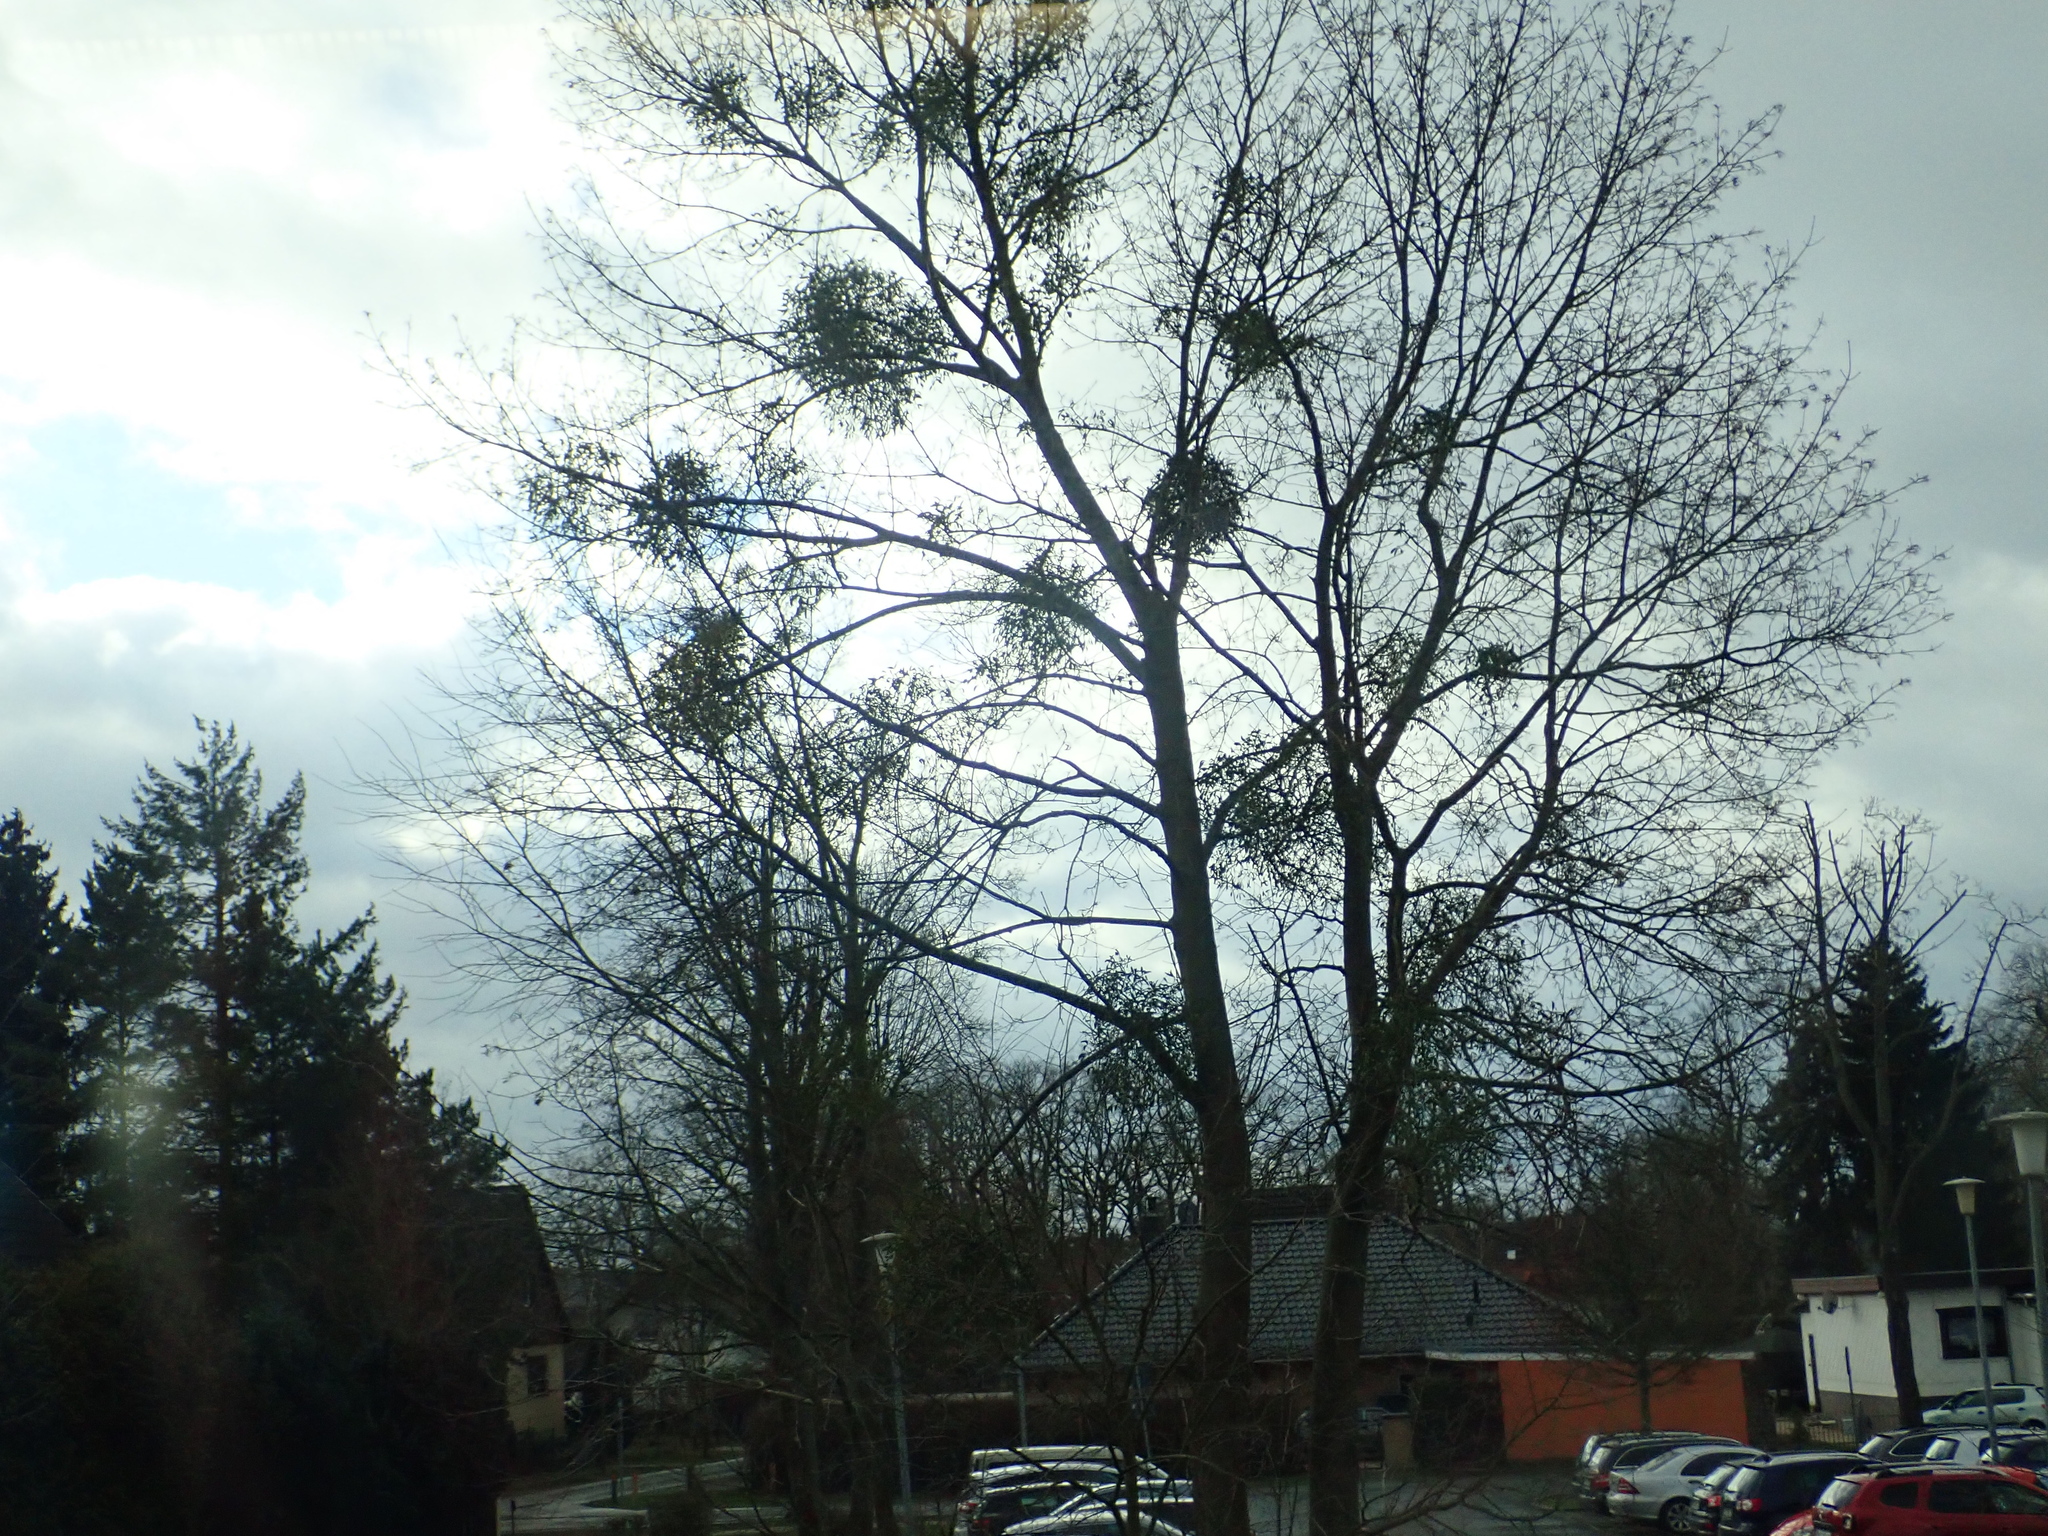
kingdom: Plantae
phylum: Tracheophyta
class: Magnoliopsida
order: Santalales
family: Viscaceae
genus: Viscum
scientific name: Viscum album
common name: Mistletoe
